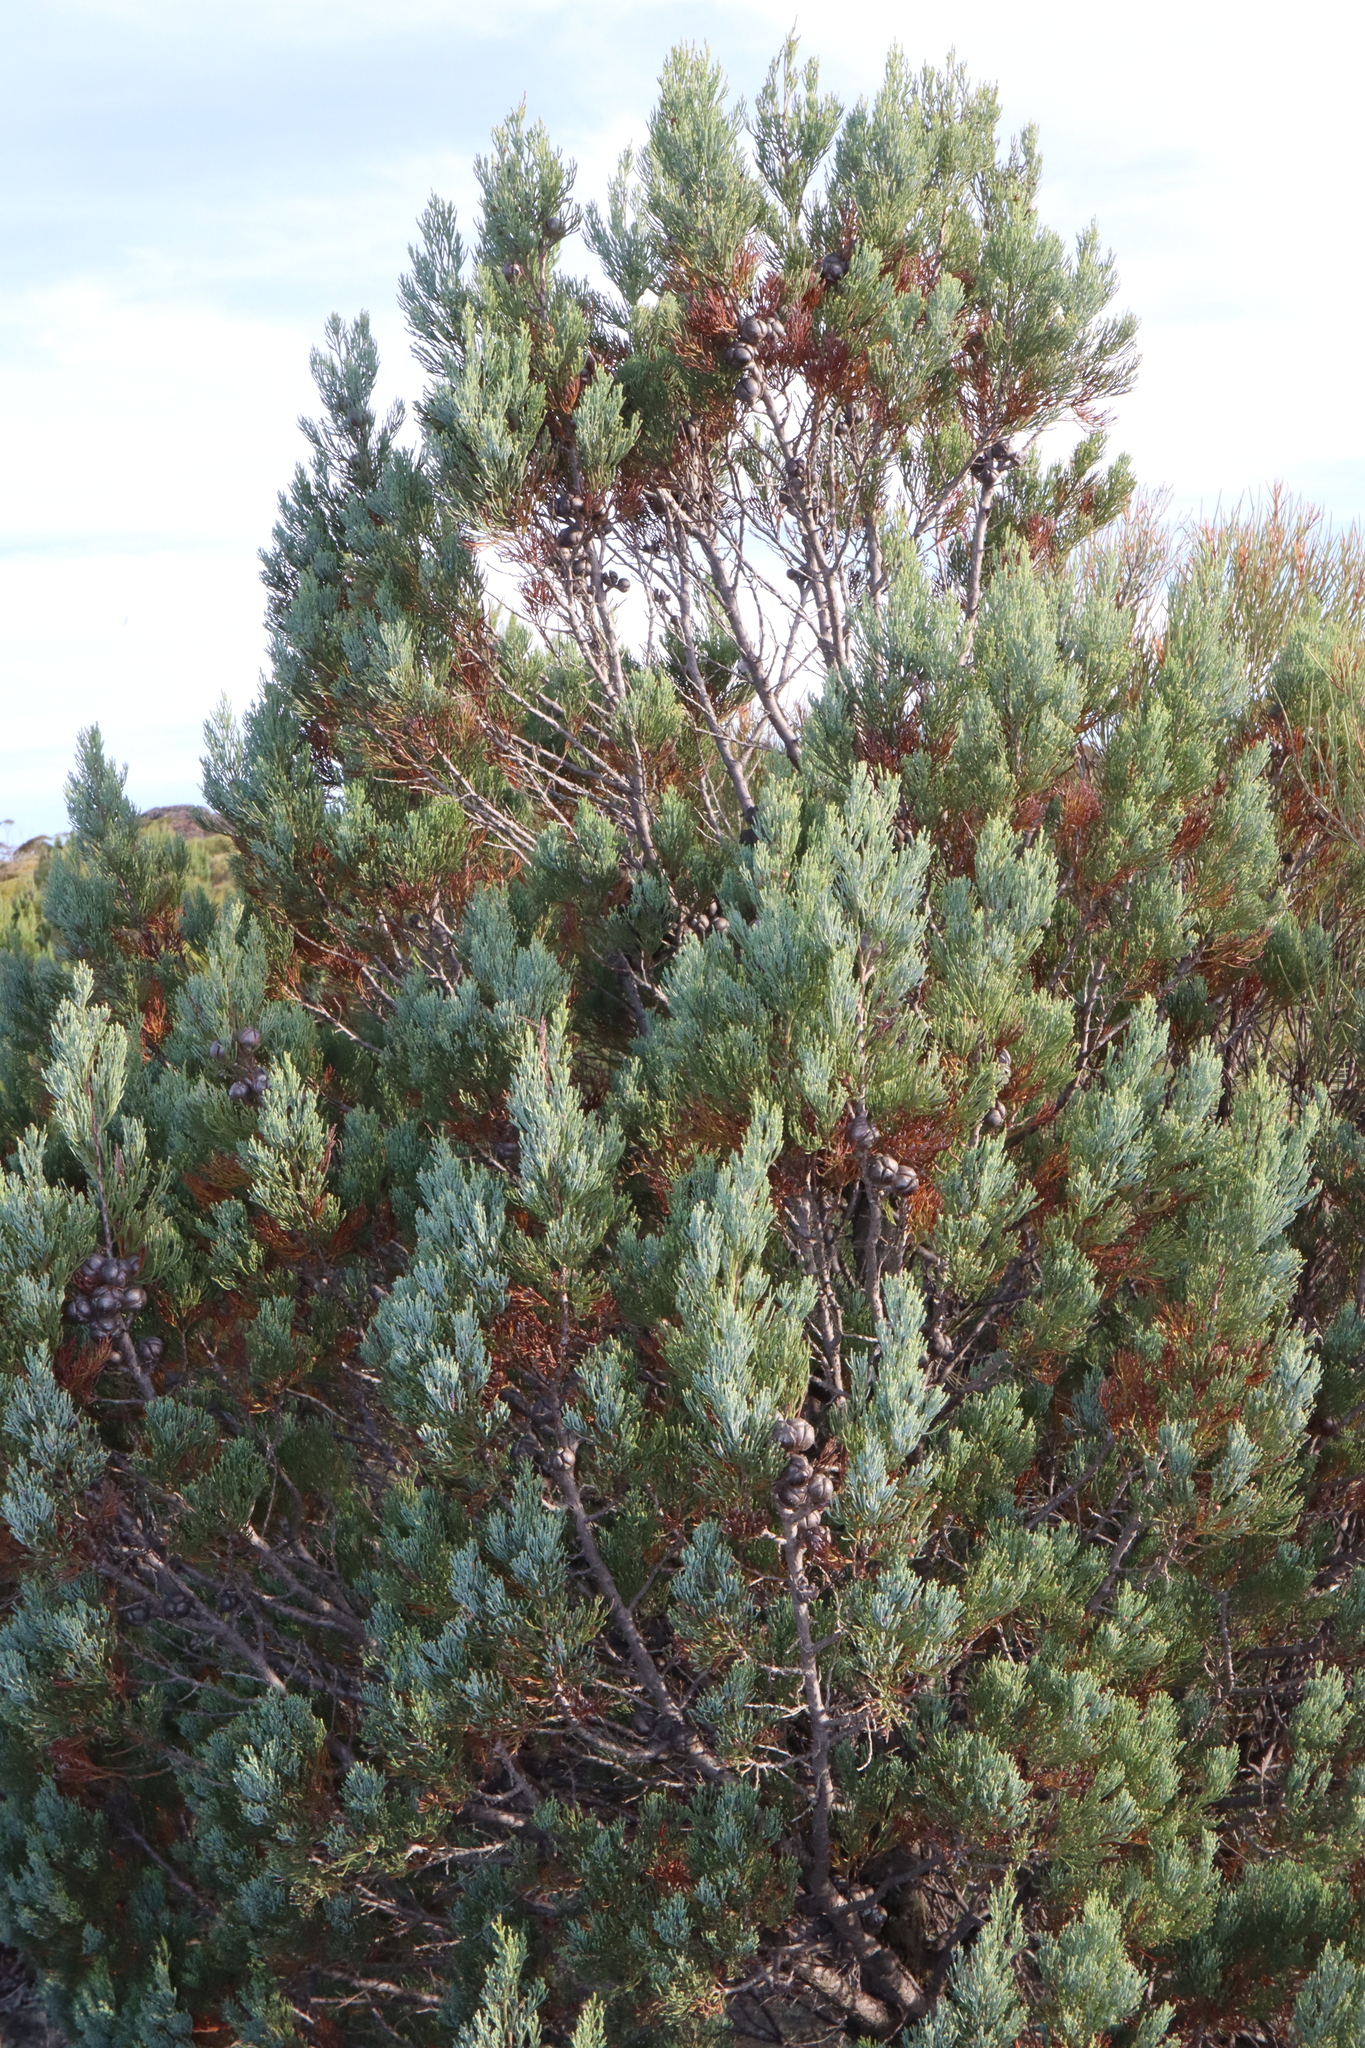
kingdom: Plantae
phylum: Tracheophyta
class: Pinopsida
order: Pinales
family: Cupressaceae
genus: Callitris
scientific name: Callitris canescens
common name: Morrison's cypress-pine
